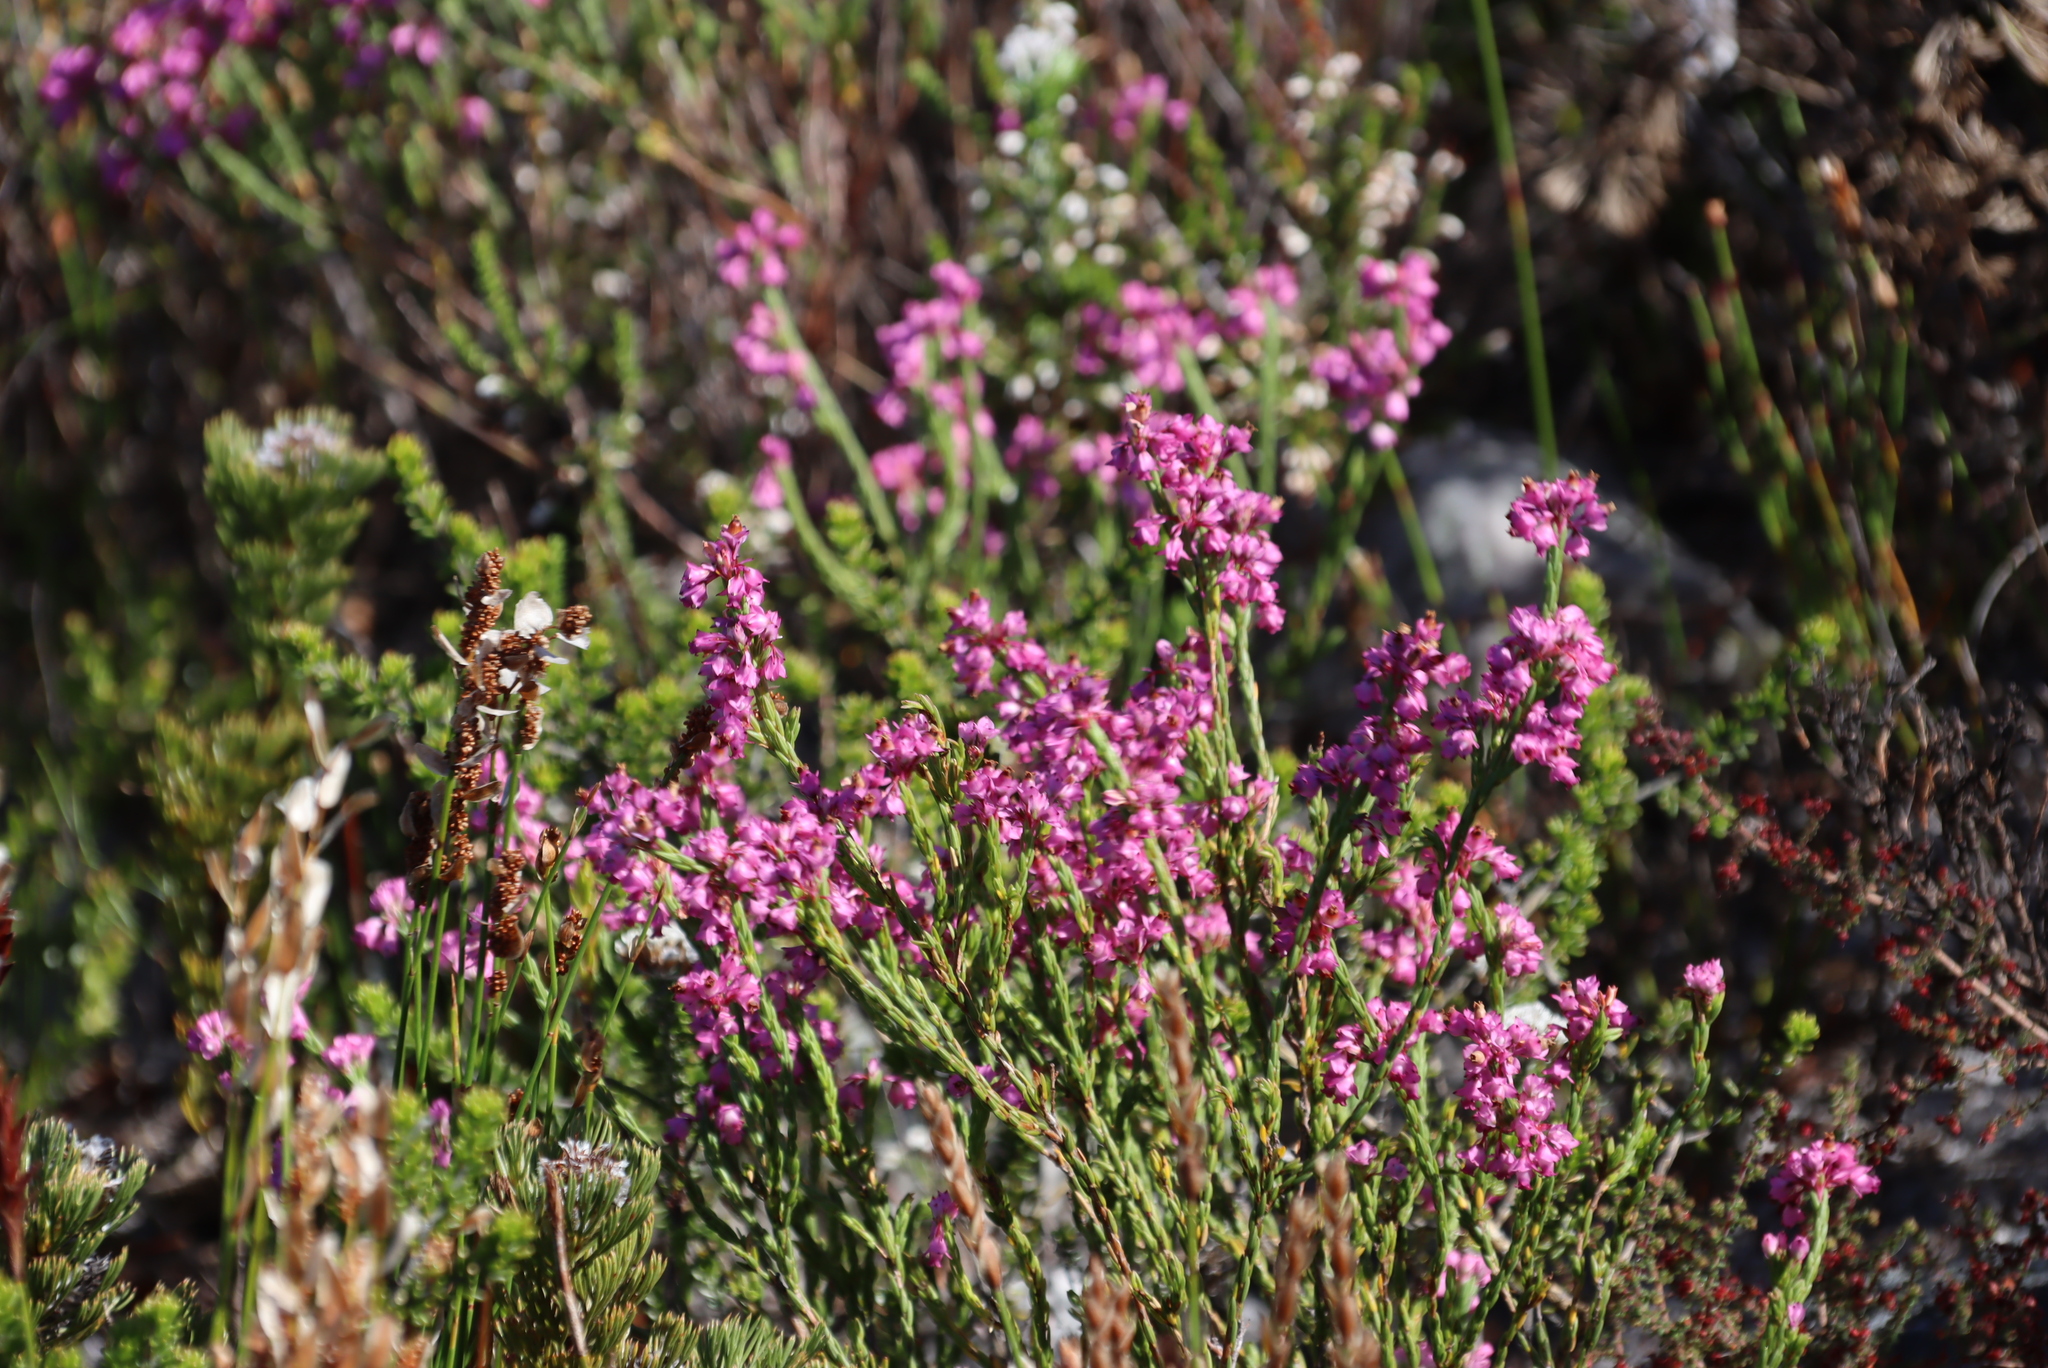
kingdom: Plantae
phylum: Tracheophyta
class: Magnoliopsida
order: Ericales
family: Ericaceae
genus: Erica
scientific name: Erica corifolia
